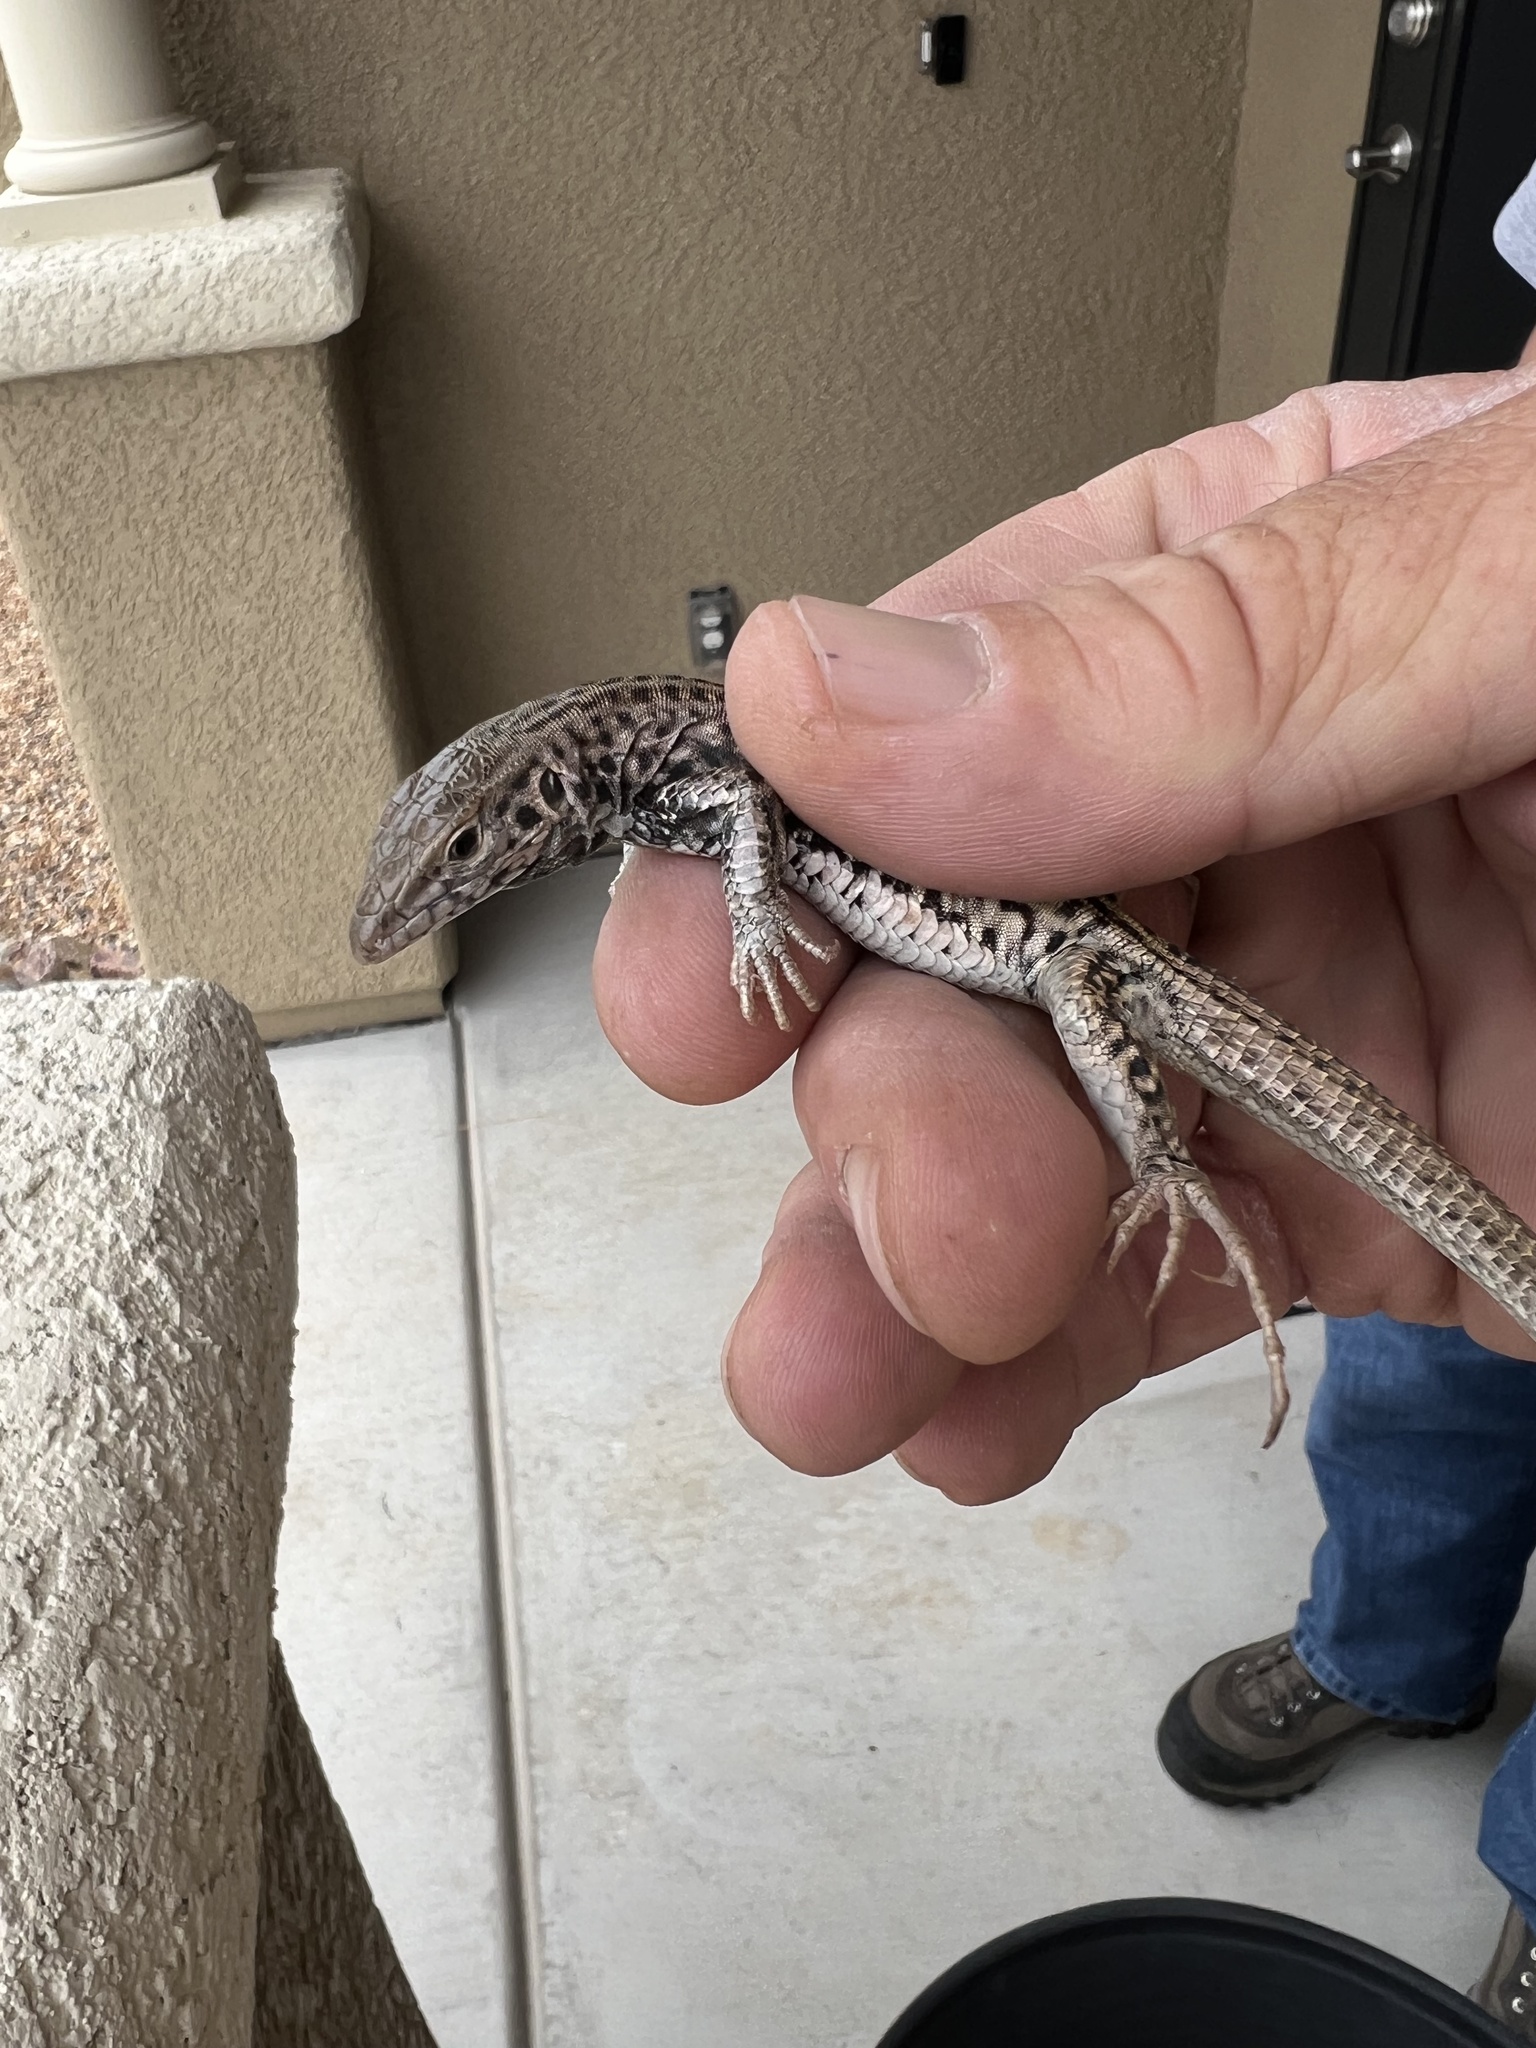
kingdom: Animalia
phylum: Chordata
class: Squamata
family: Teiidae
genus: Aspidoscelis
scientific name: Aspidoscelis tigris
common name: Tiger whiptail
